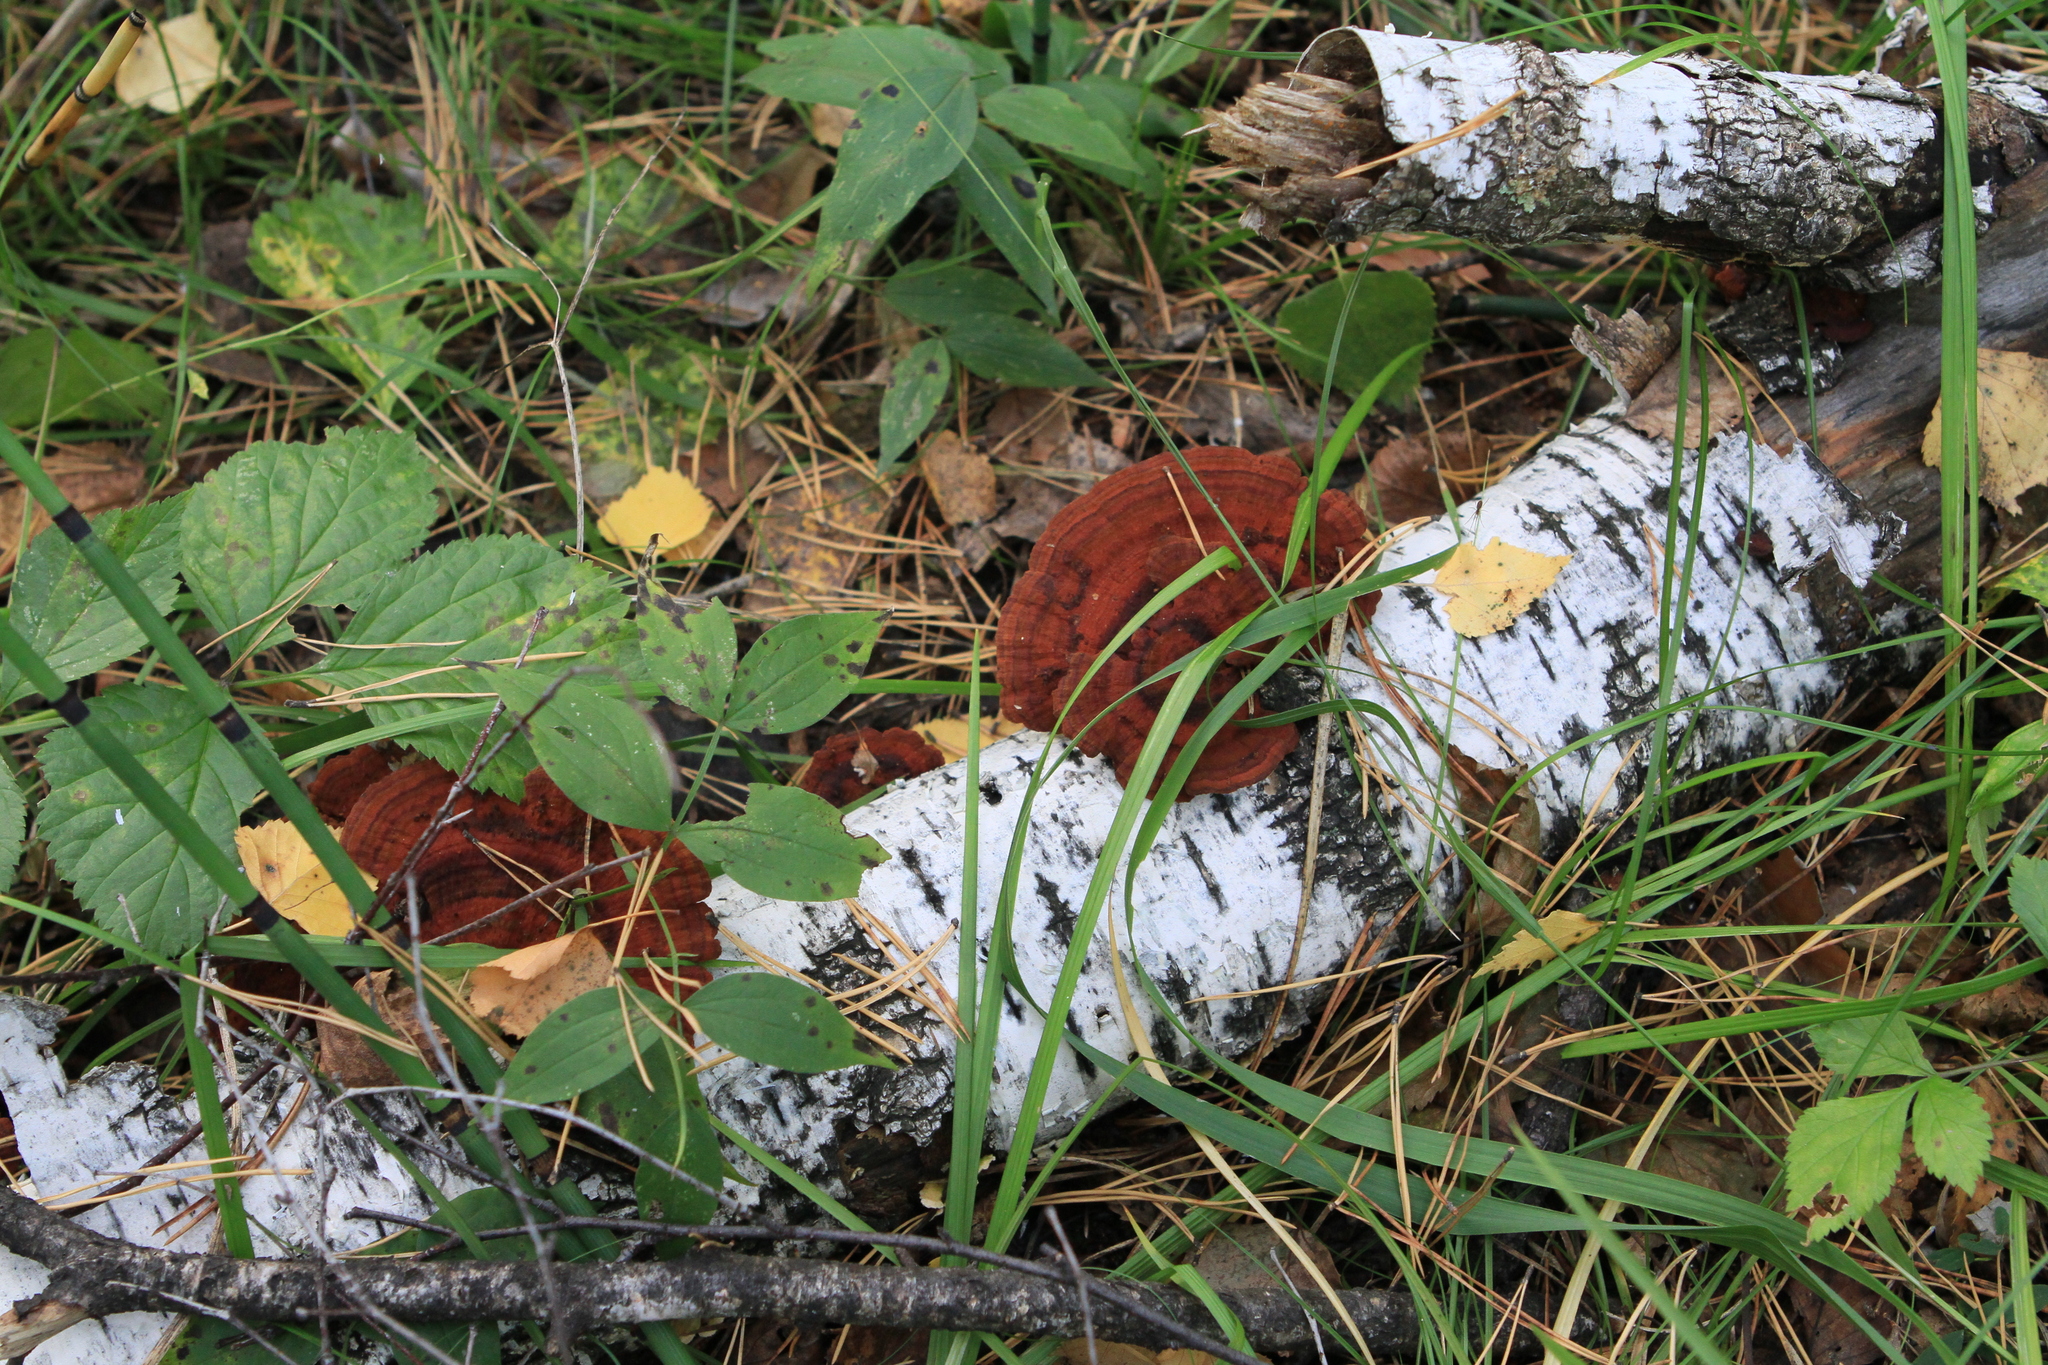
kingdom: Fungi
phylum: Basidiomycota
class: Agaricomycetes
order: Polyporales
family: Polyporaceae
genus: Daedaleopsis
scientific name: Daedaleopsis tricolor
